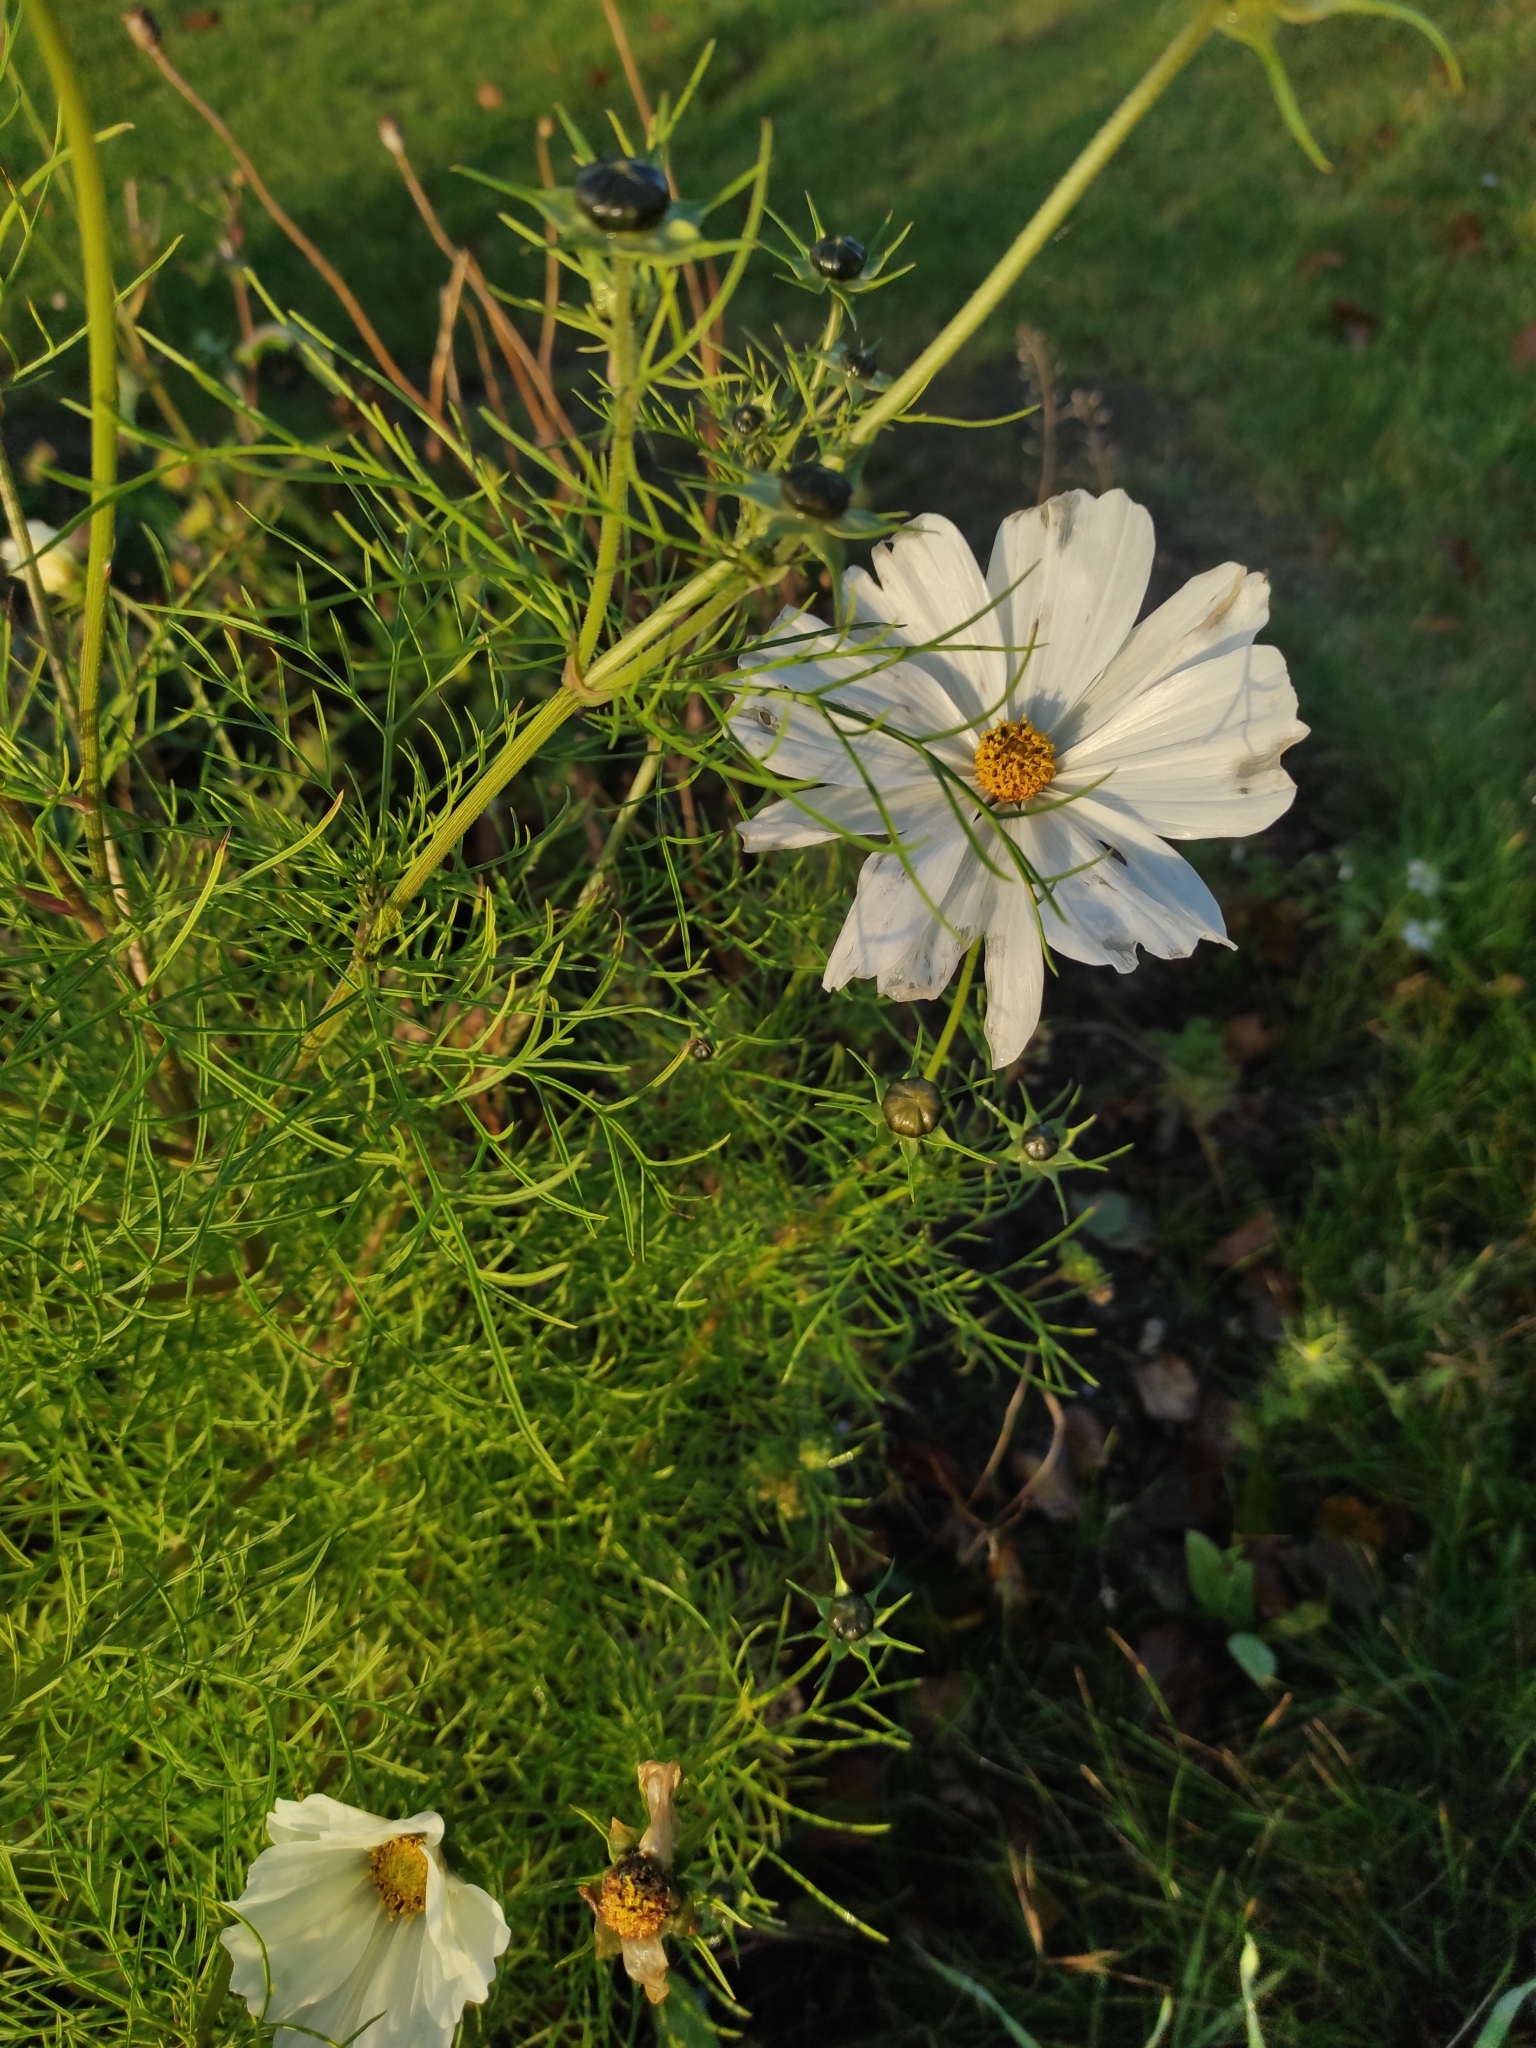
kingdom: Plantae
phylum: Tracheophyta
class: Magnoliopsida
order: Asterales
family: Asteraceae
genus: Cosmos
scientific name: Cosmos bipinnatus
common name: Garden cosmos
